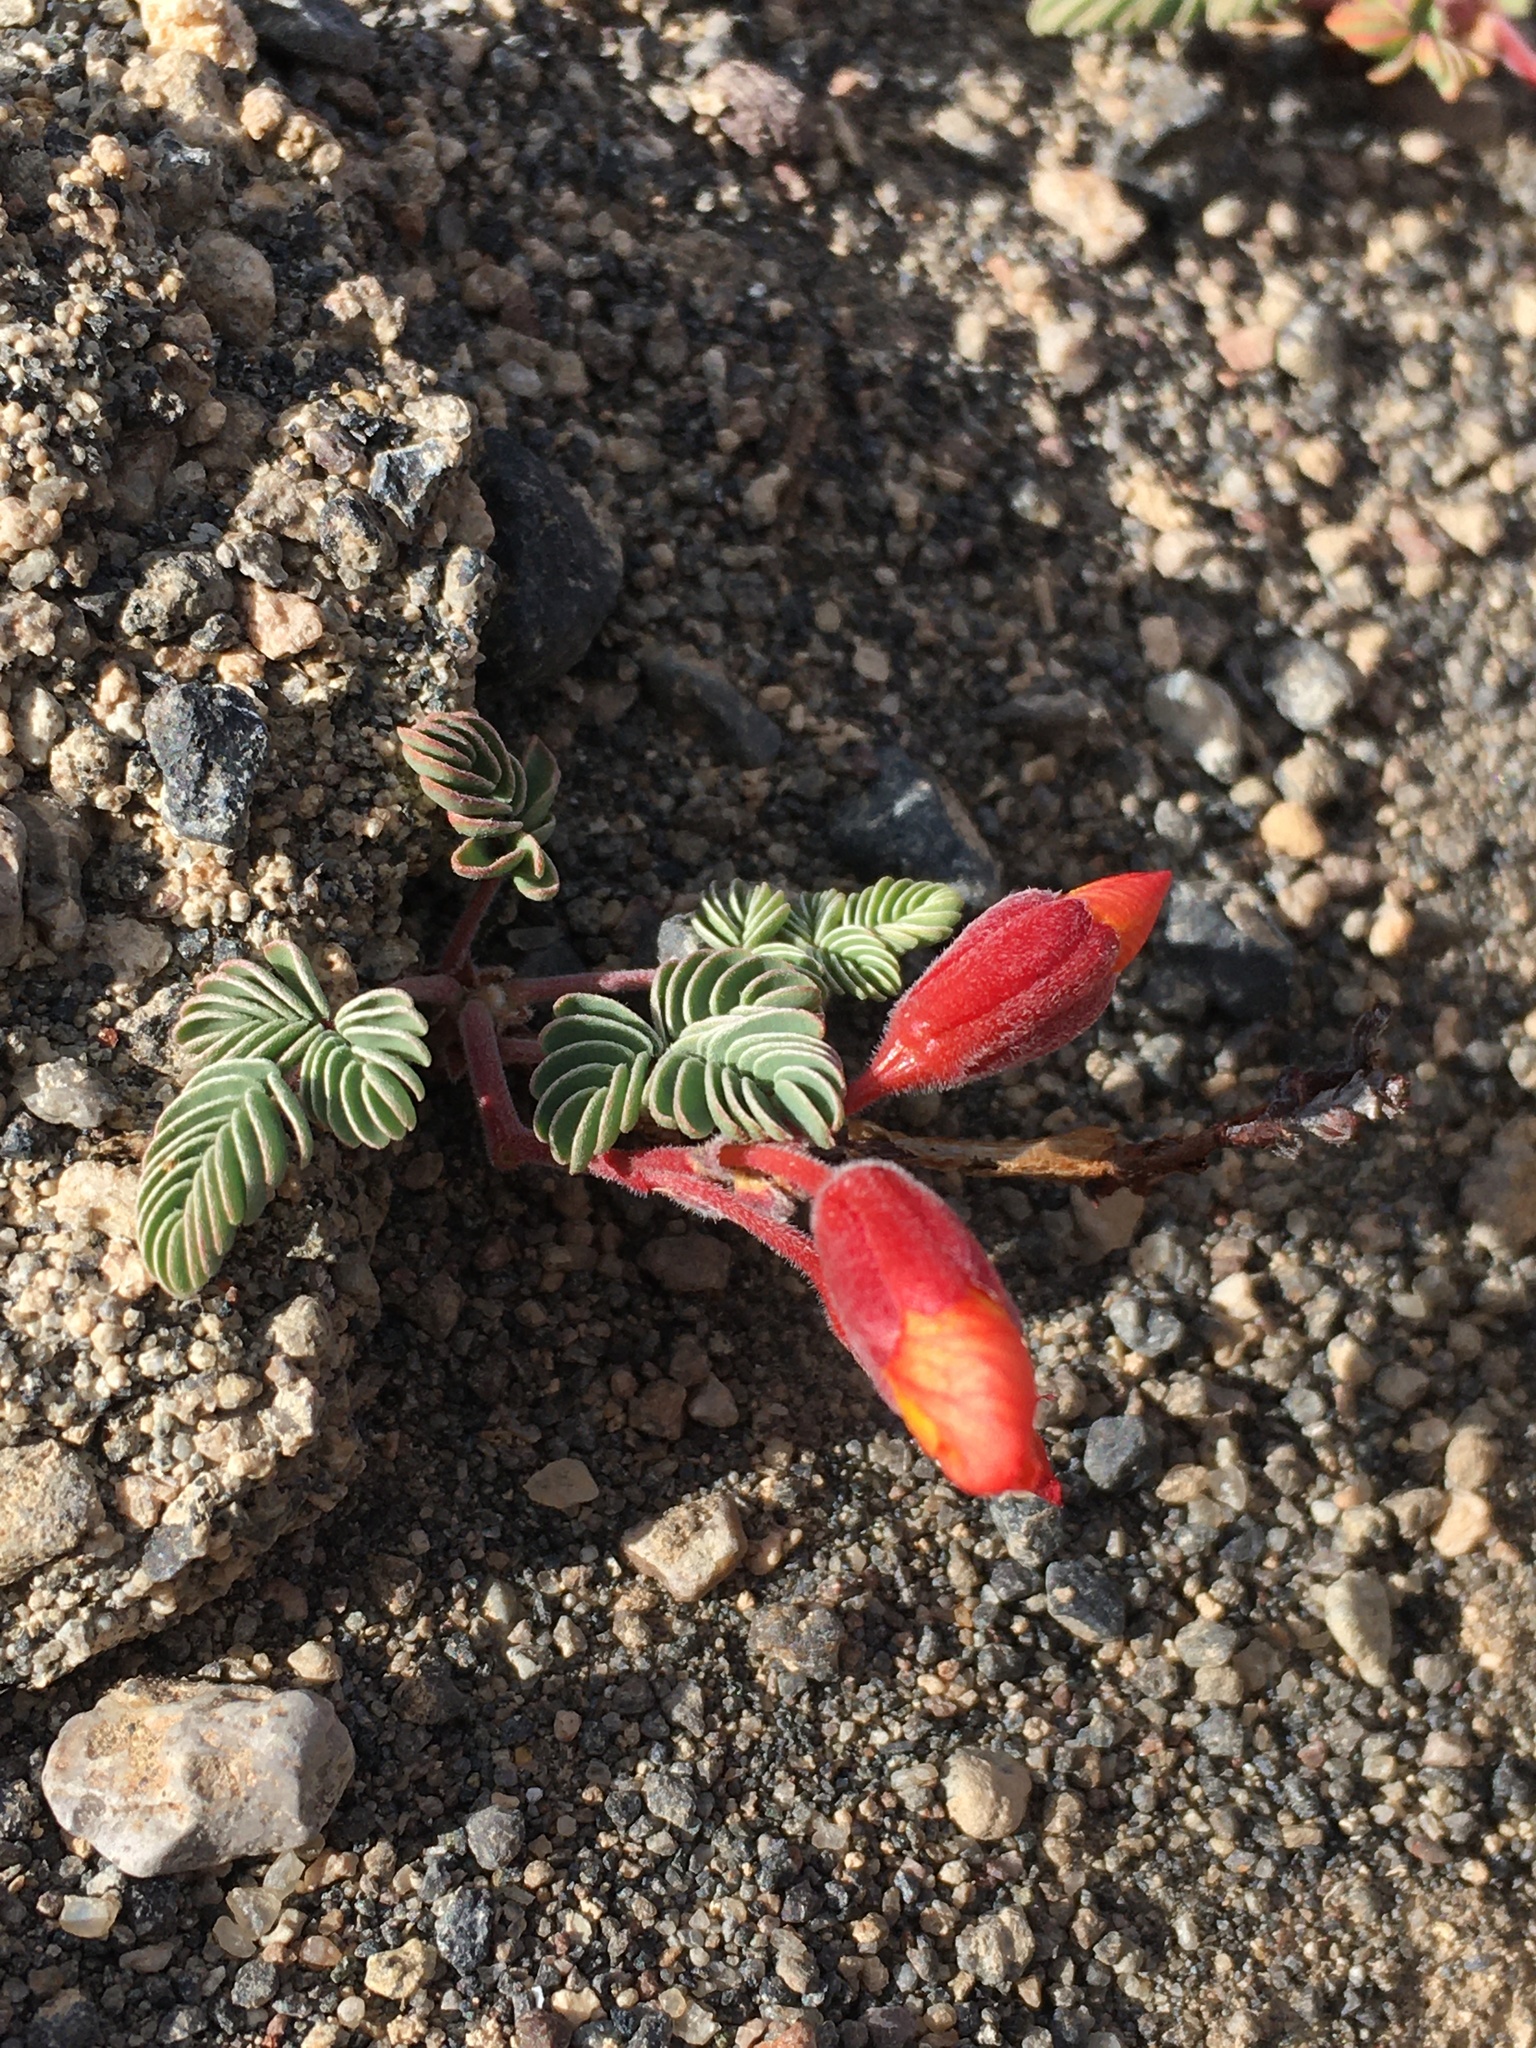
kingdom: Plantae
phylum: Tracheophyta
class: Magnoliopsida
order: Fabales
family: Fabaceae
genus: Hoffmannseggia
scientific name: Hoffmannseggia eremophila
